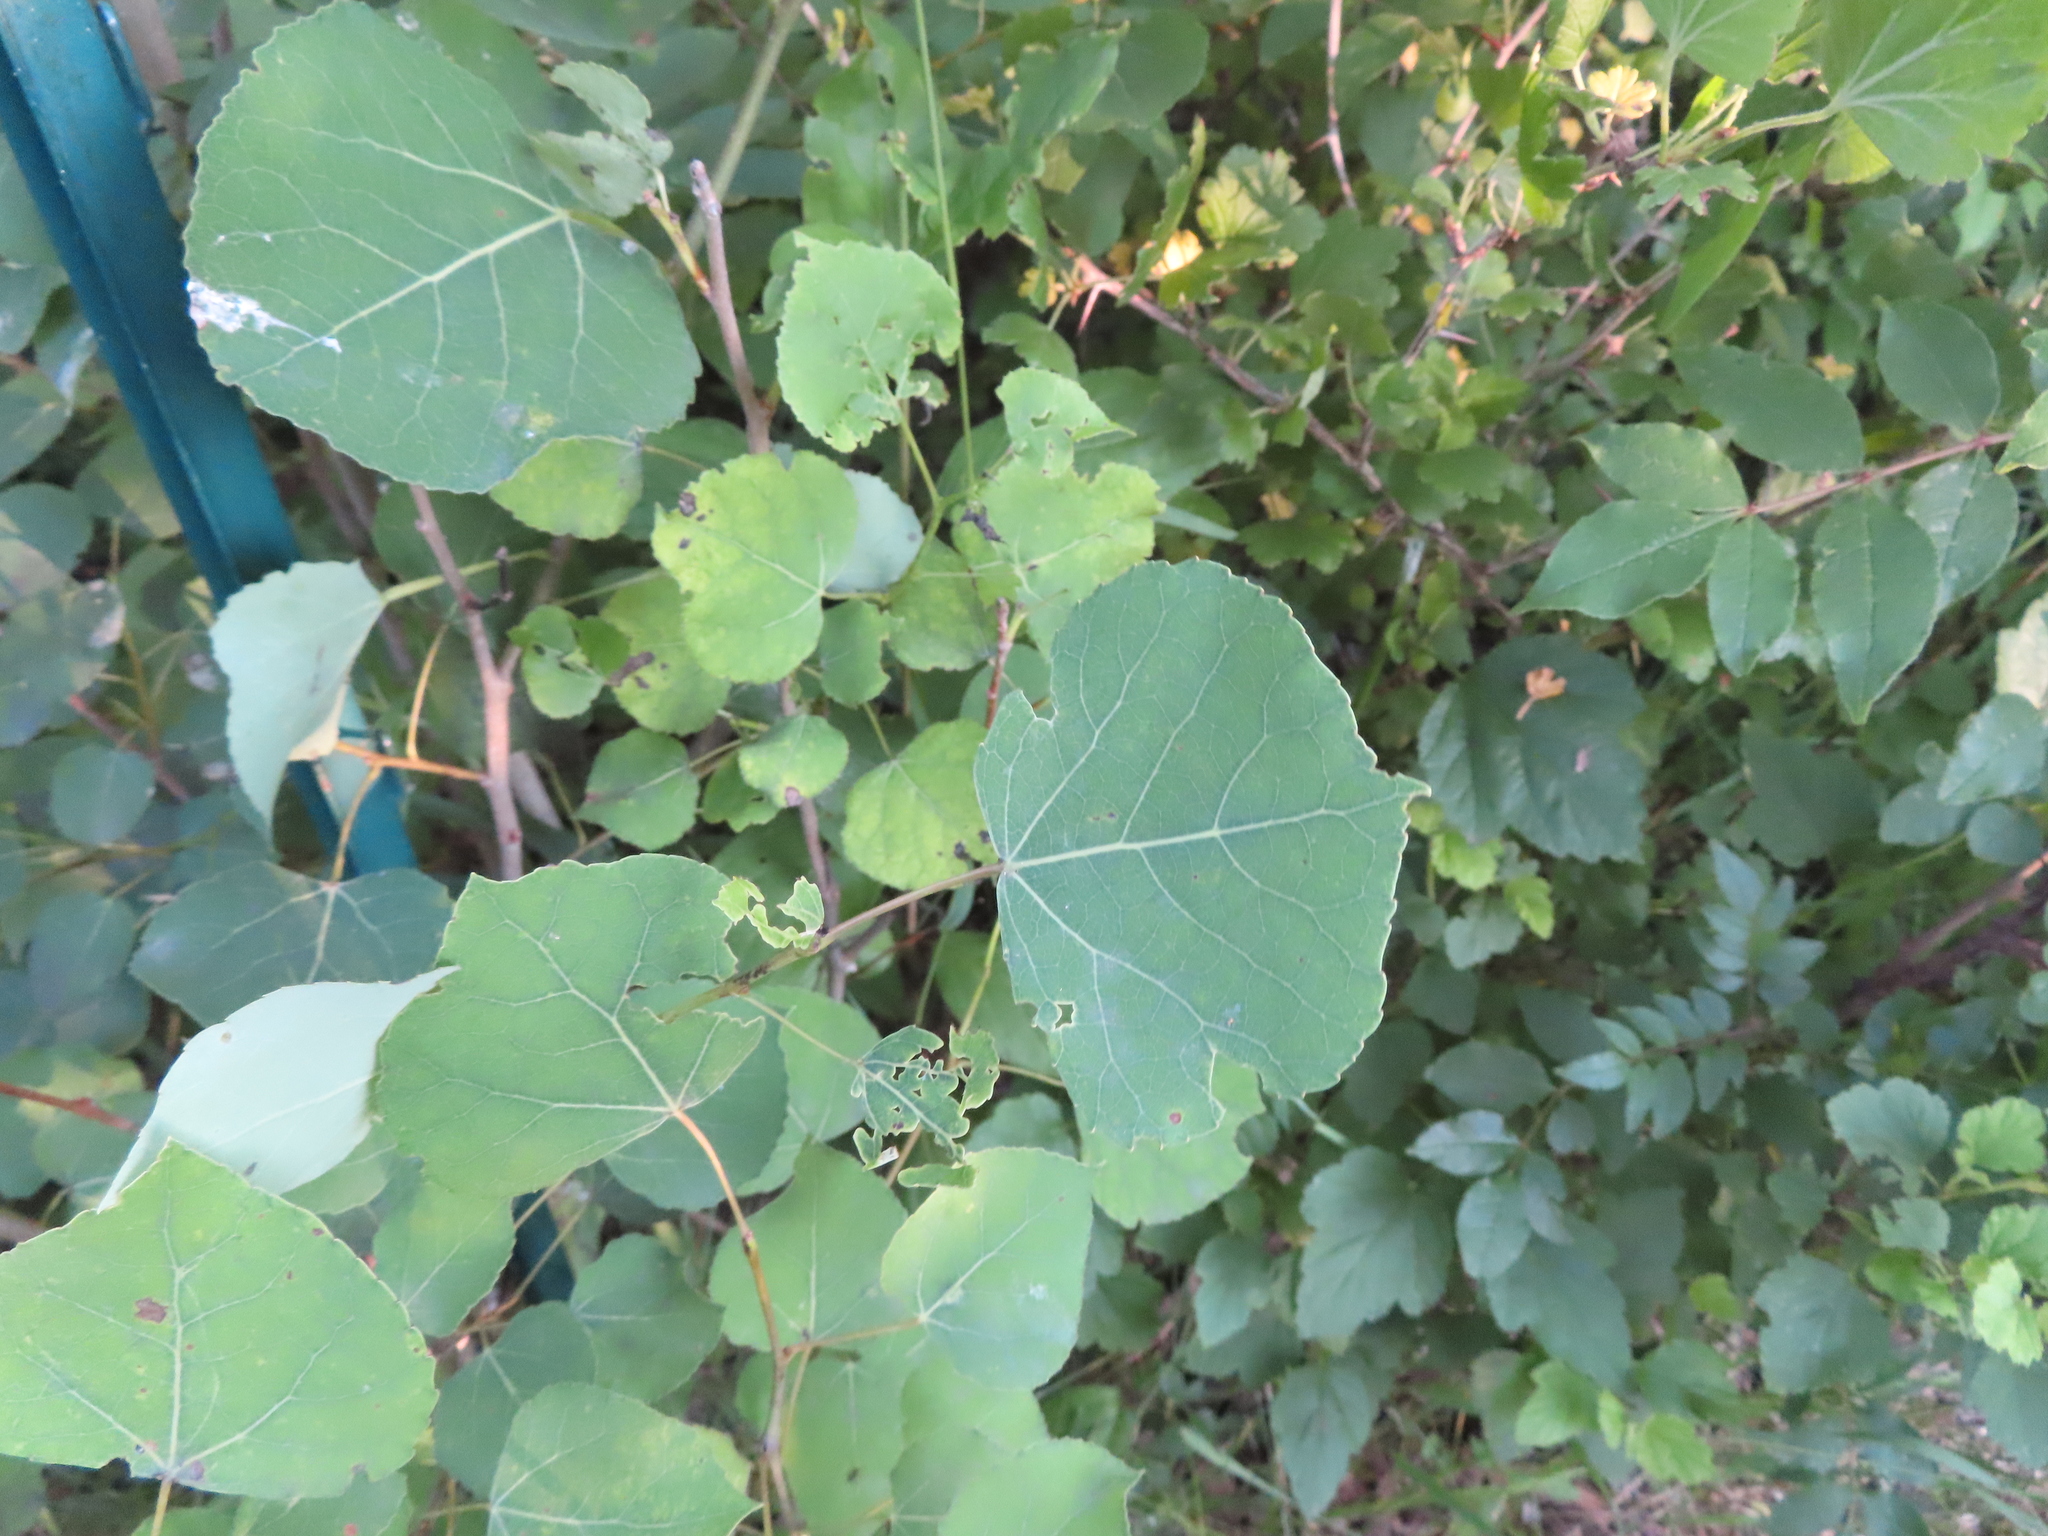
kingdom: Plantae
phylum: Tracheophyta
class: Magnoliopsida
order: Malpighiales
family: Salicaceae
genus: Populus
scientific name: Populus tremuloides
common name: Quaking aspen
